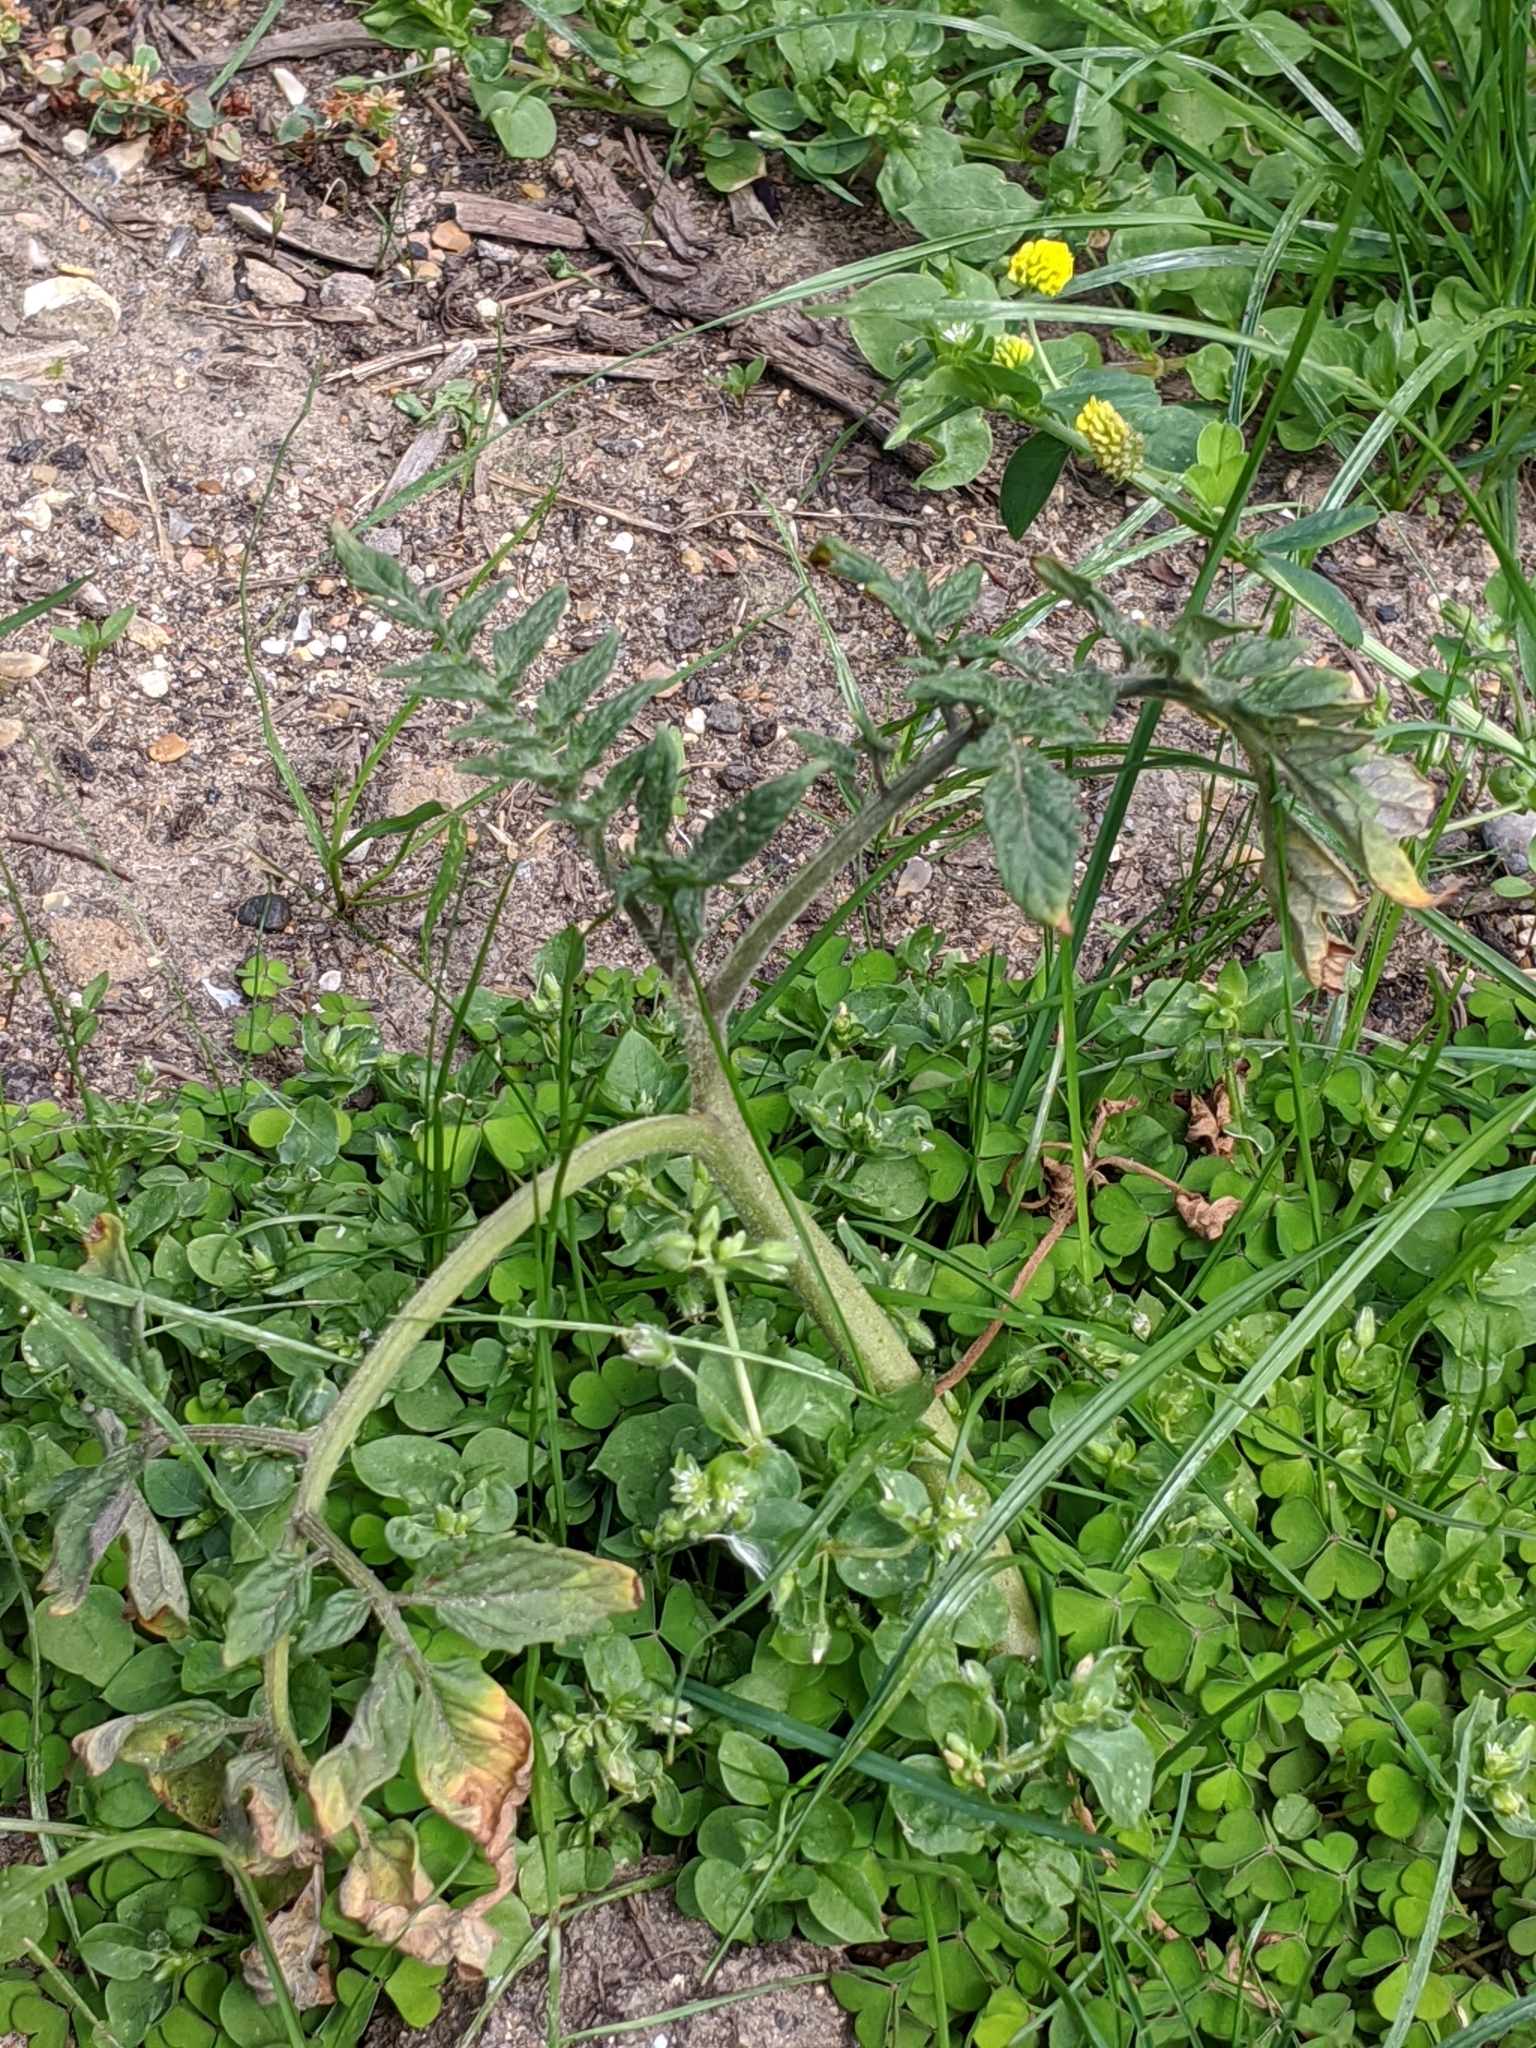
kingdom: Plantae
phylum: Tracheophyta
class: Magnoliopsida
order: Solanales
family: Solanaceae
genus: Solanum
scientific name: Solanum lycopersicum
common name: Garden tomato
